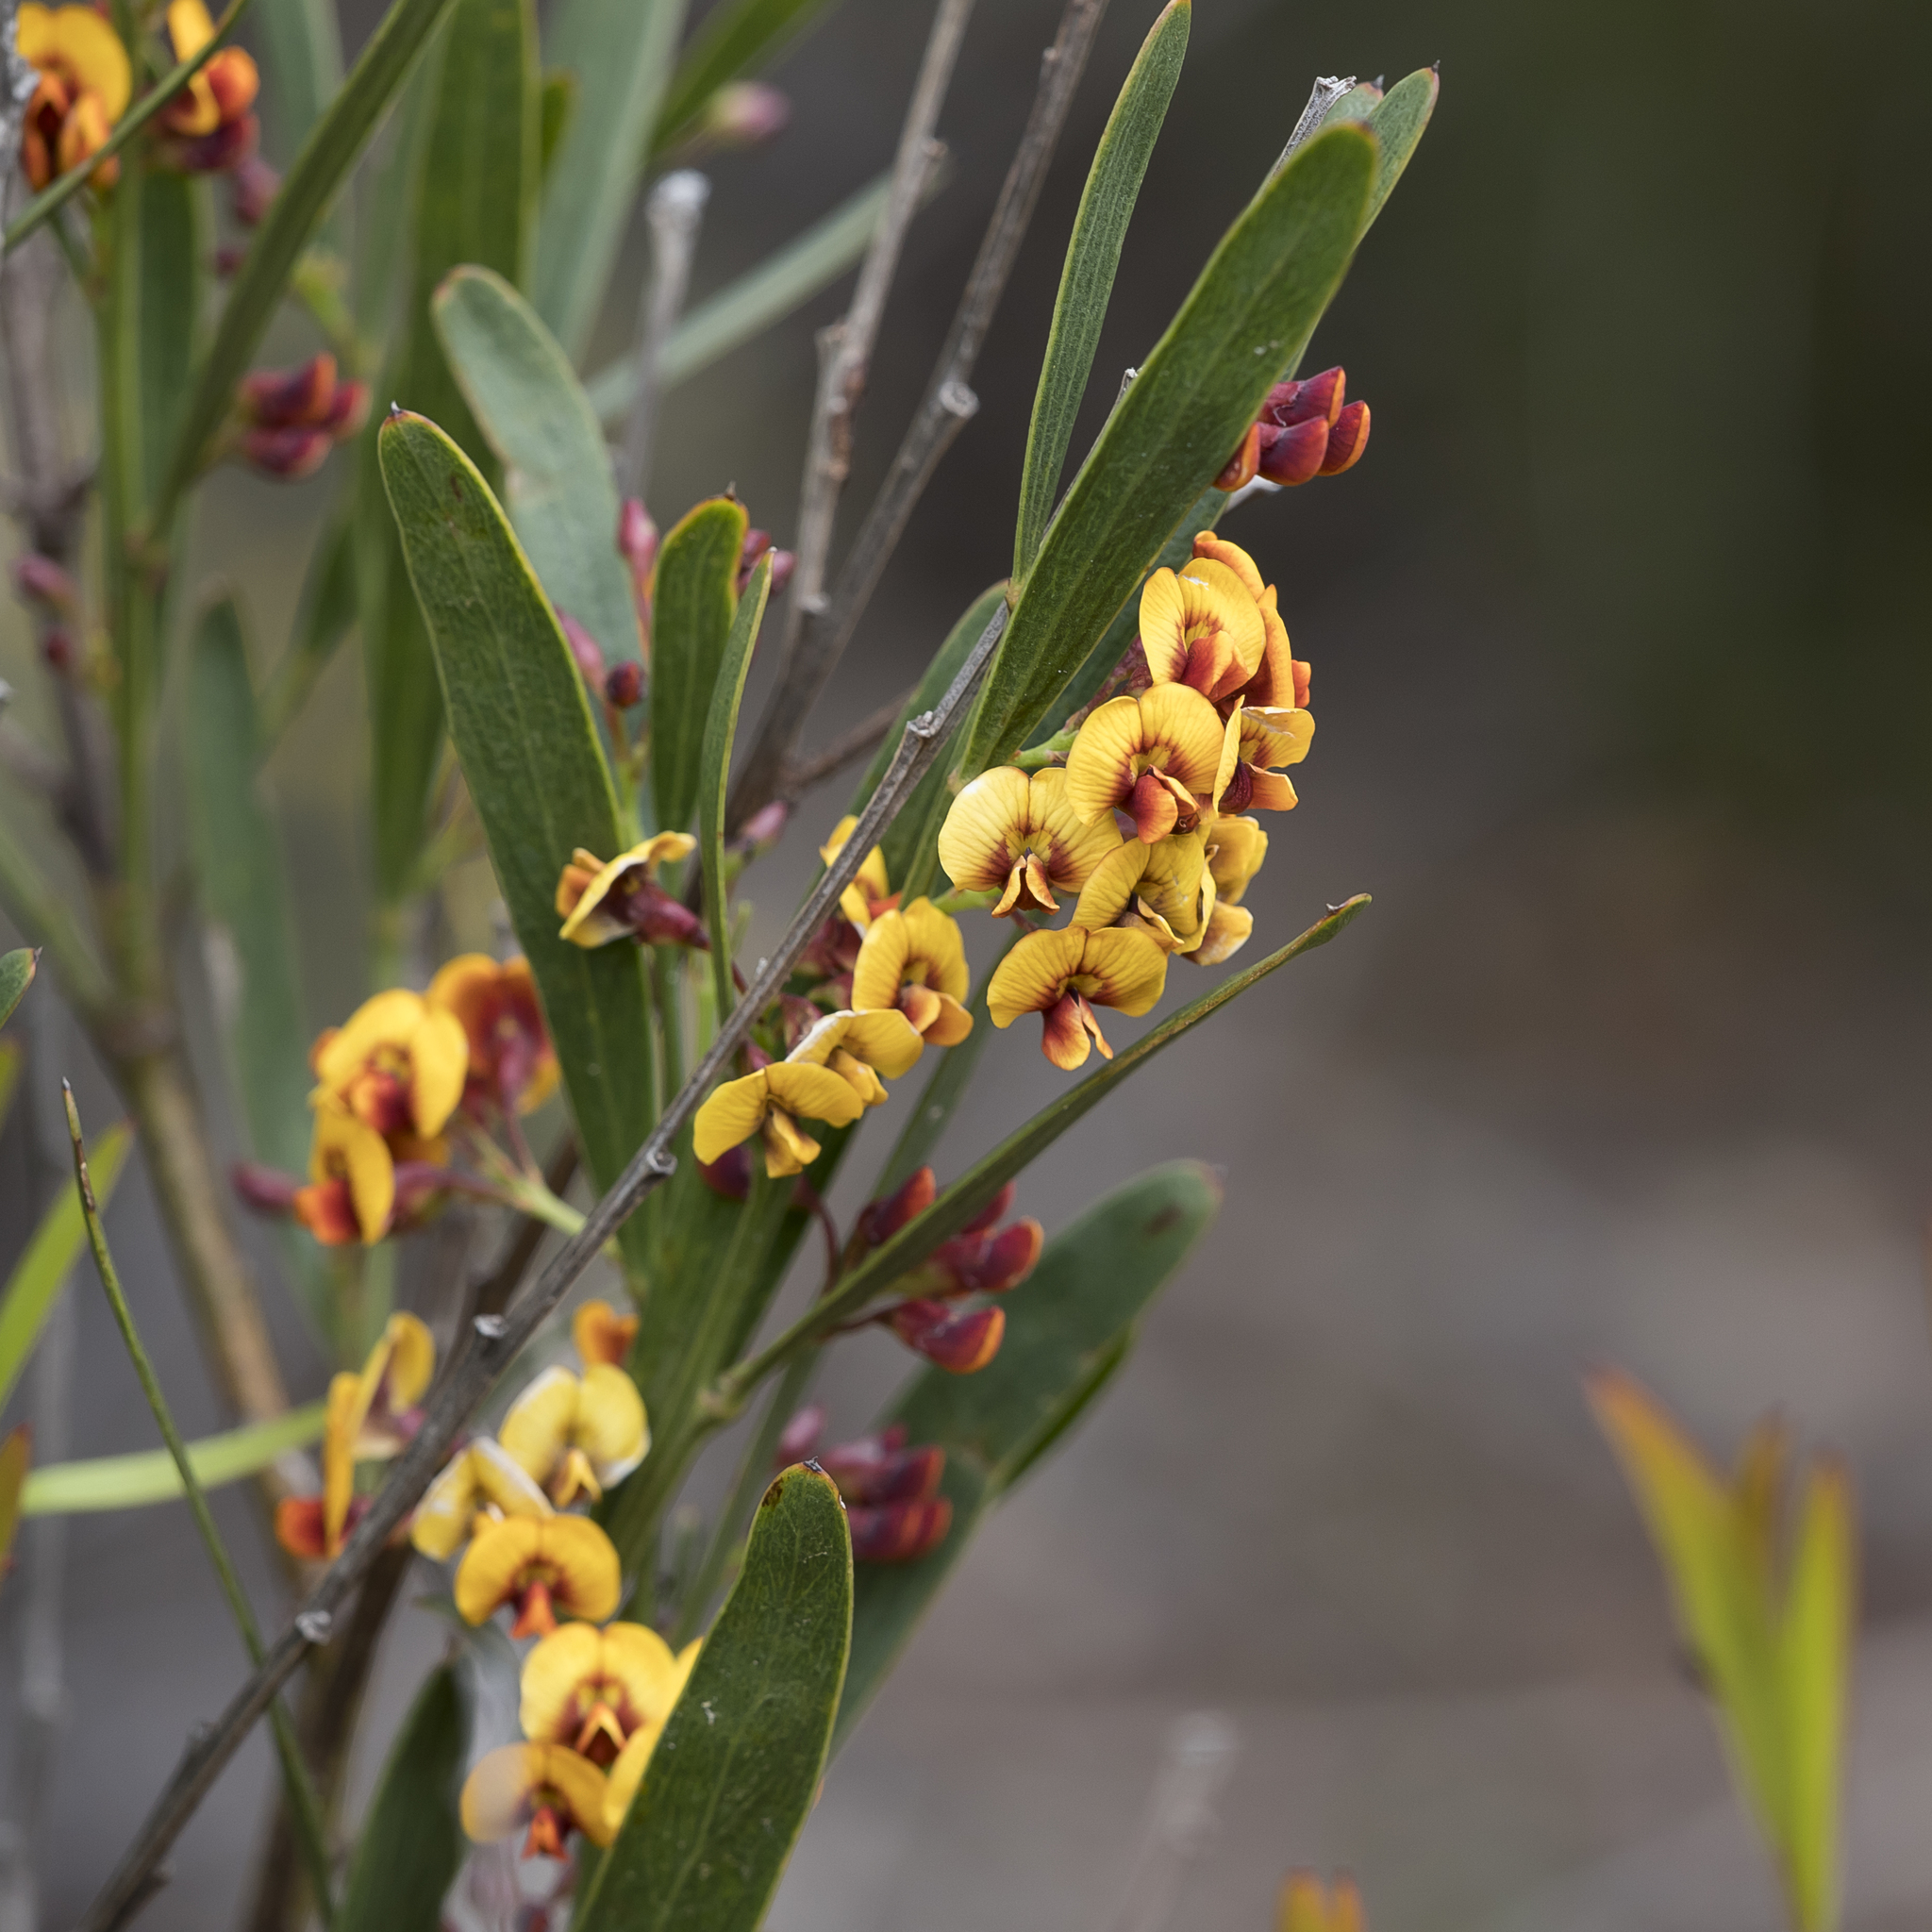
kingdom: Plantae
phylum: Tracheophyta
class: Magnoliopsida
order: Fabales
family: Fabaceae
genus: Daviesia
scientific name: Daviesia leptophylla
